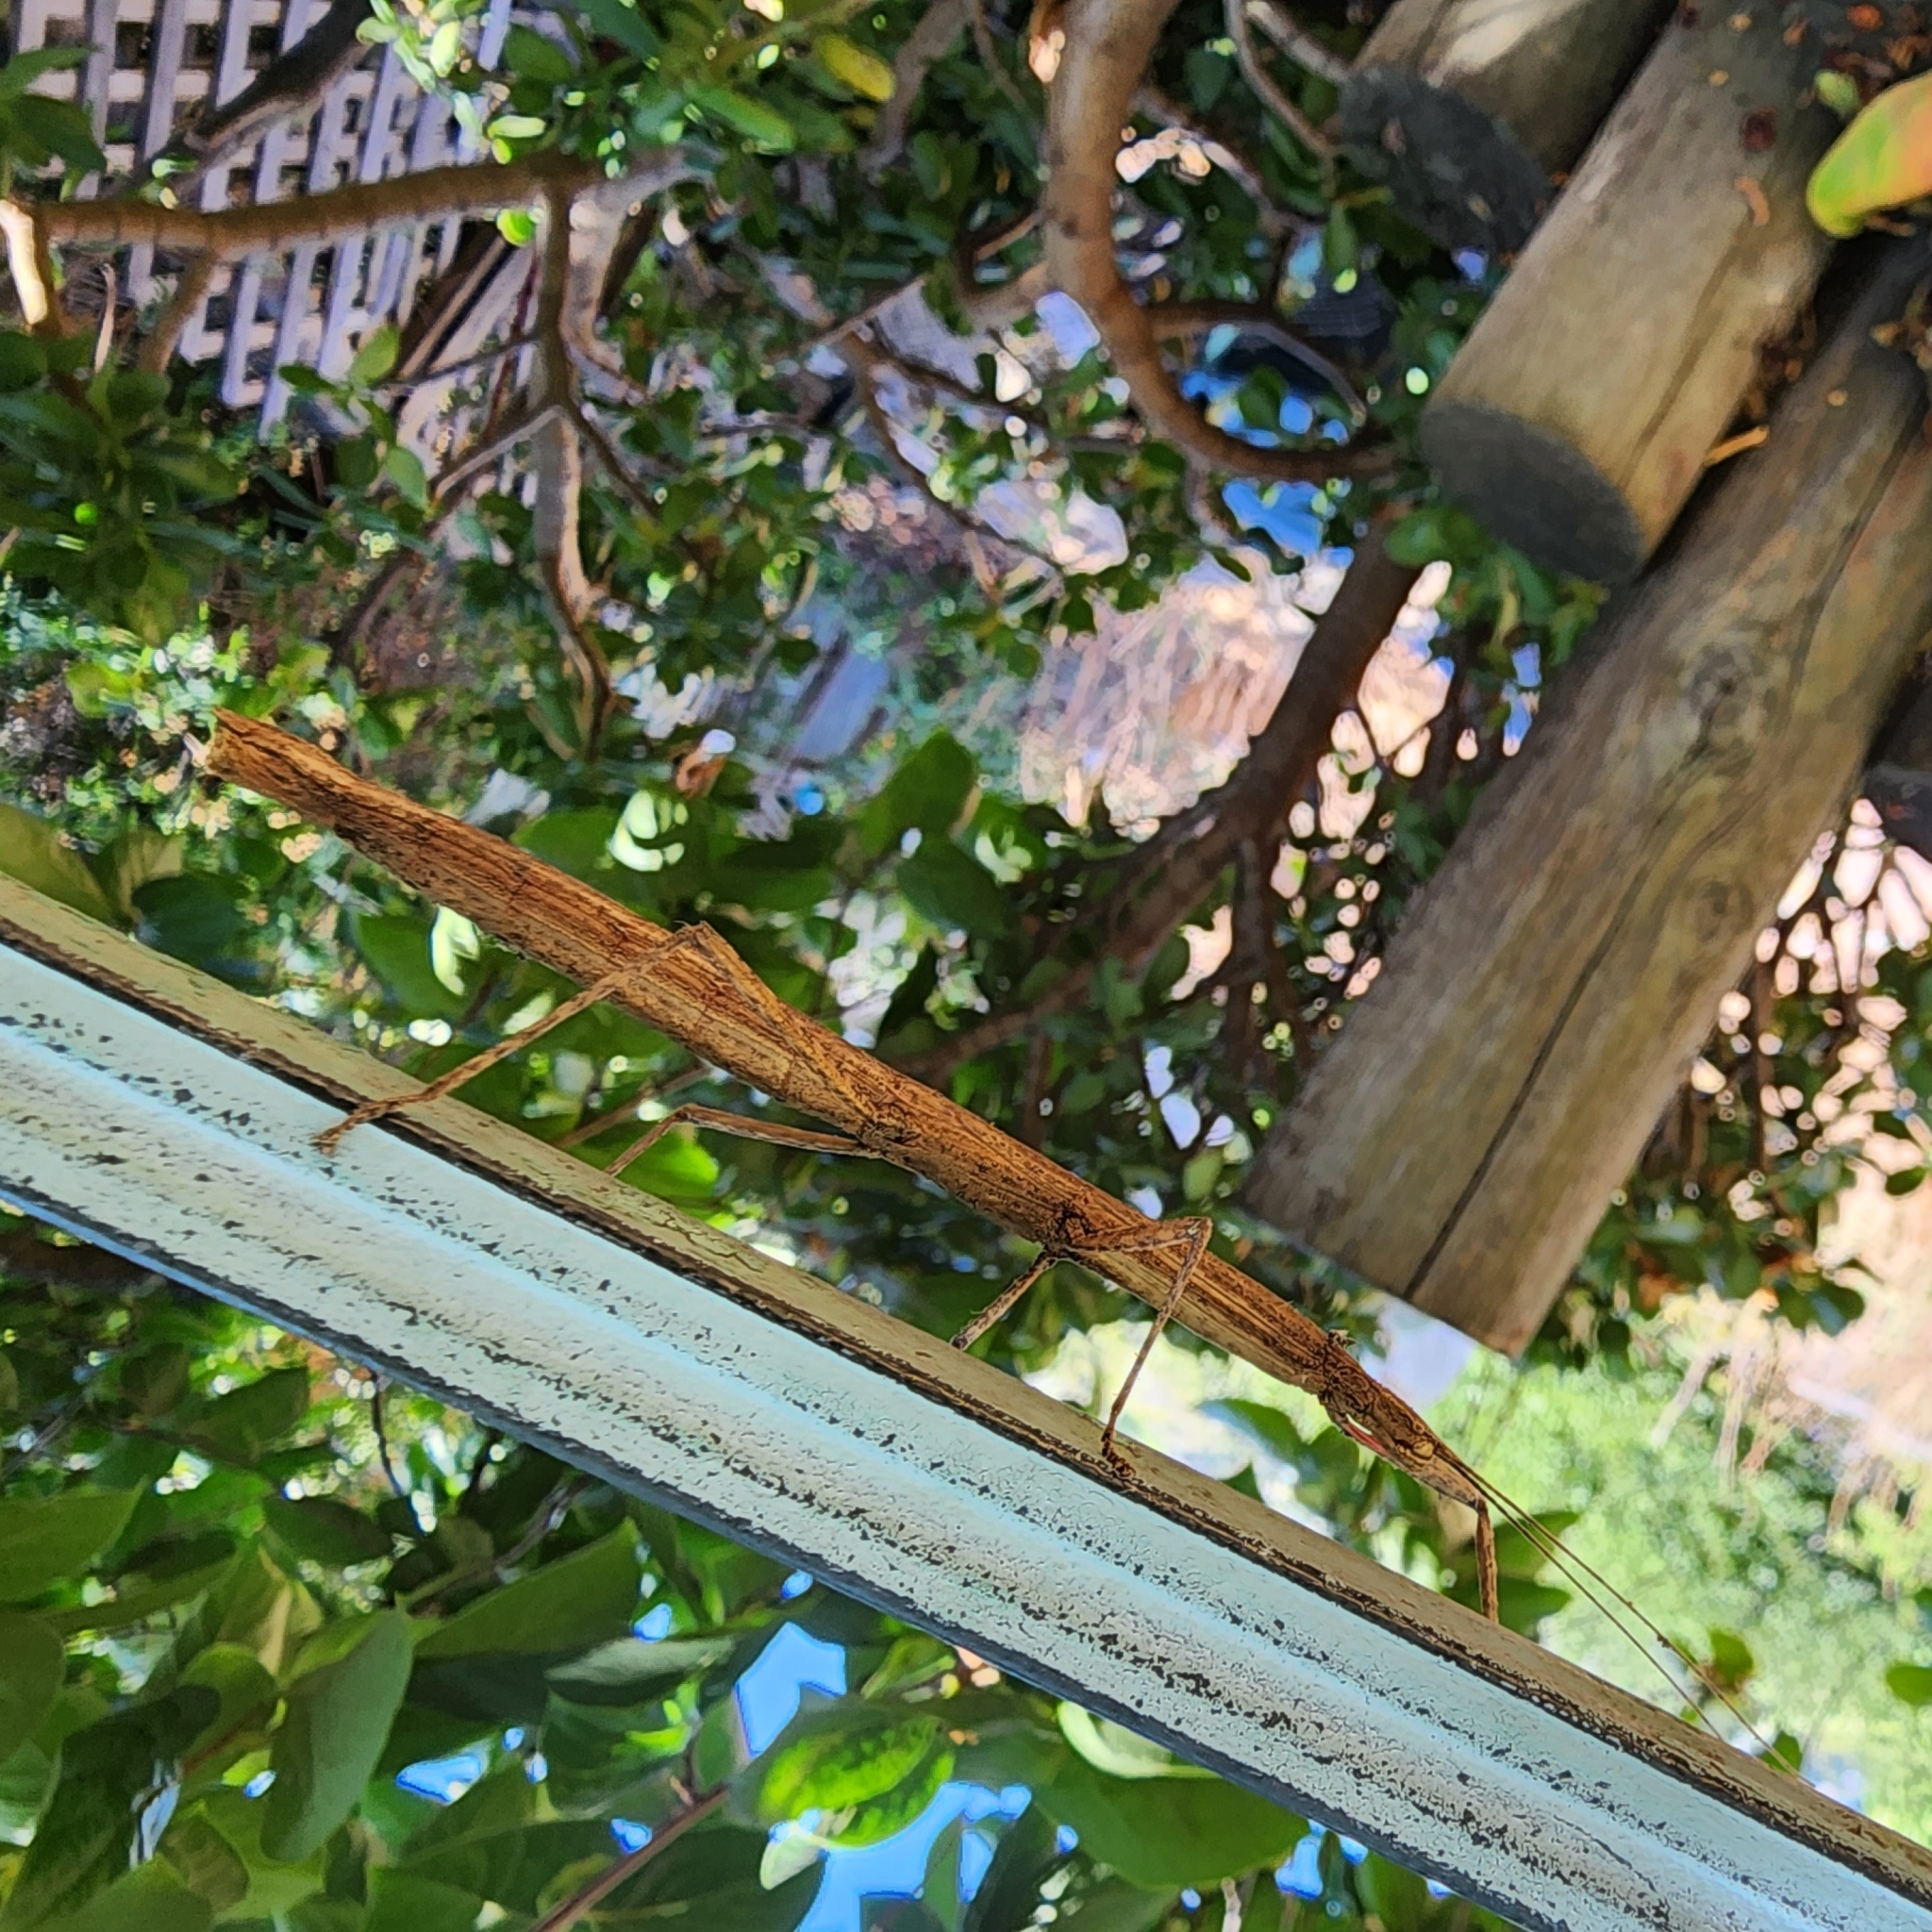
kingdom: Animalia
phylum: Arthropoda
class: Insecta
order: Phasmida
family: Lonchodidae
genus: Carausius
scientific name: Carausius morosus
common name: Indian stick insect
